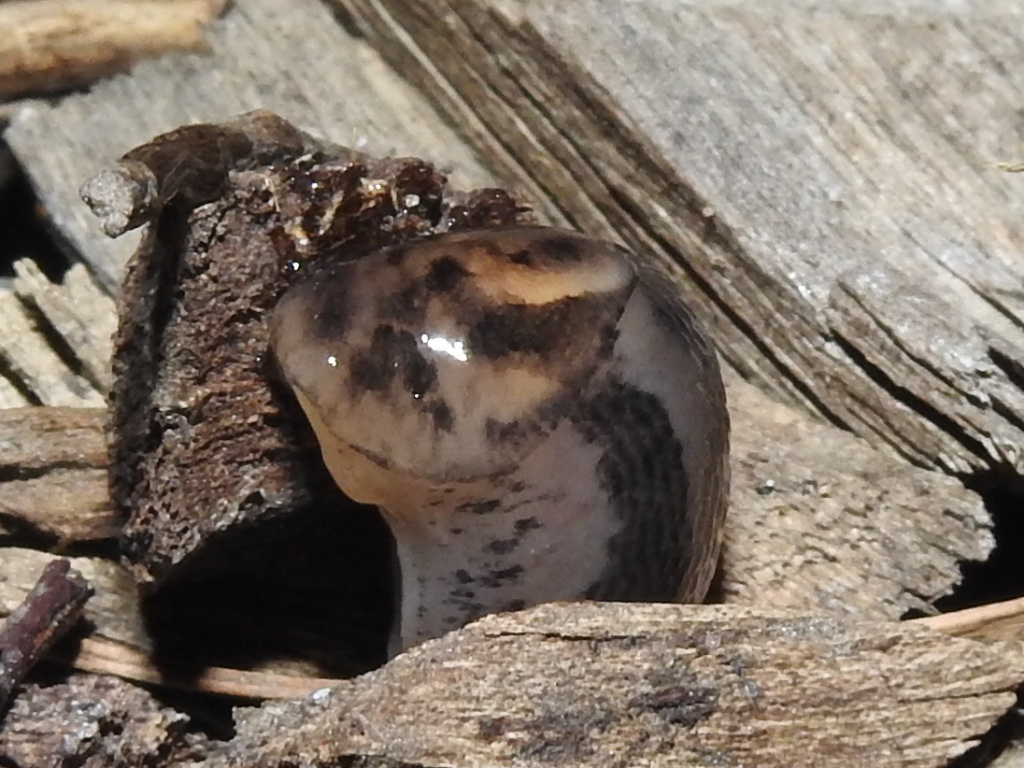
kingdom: Animalia
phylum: Mollusca
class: Gastropoda
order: Stylommatophora
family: Limacidae
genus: Ambigolimax
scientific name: Ambigolimax
